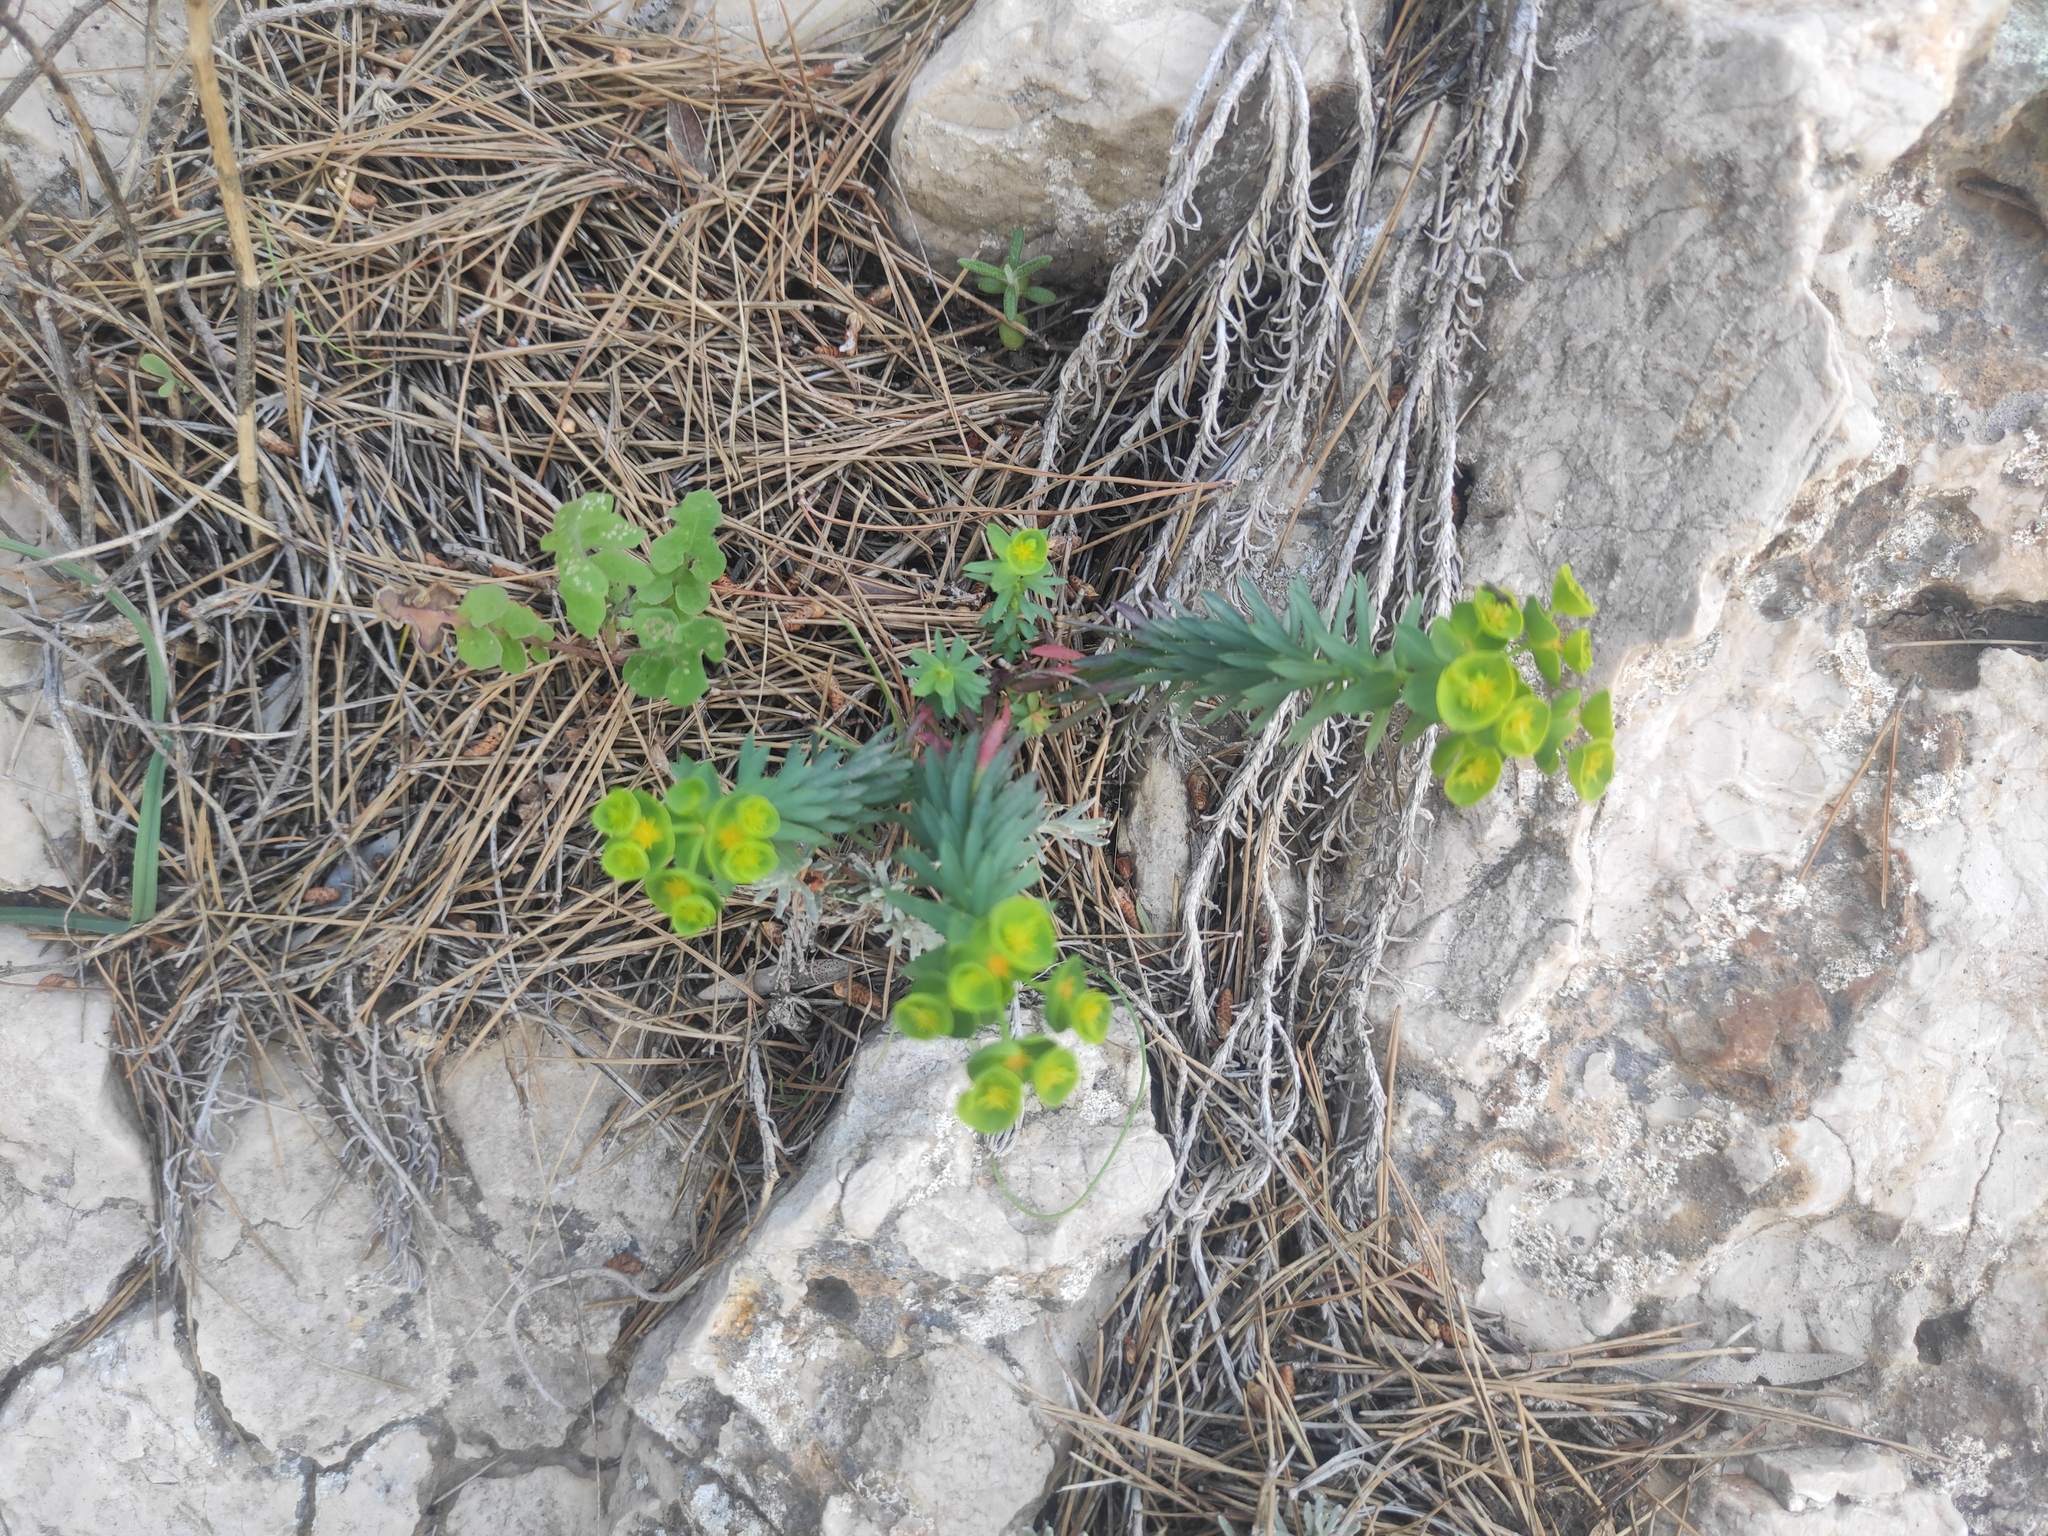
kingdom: Plantae
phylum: Tracheophyta
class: Magnoliopsida
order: Malpighiales
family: Euphorbiaceae
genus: Euphorbia
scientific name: Euphorbia segetalis
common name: Corn spurge
